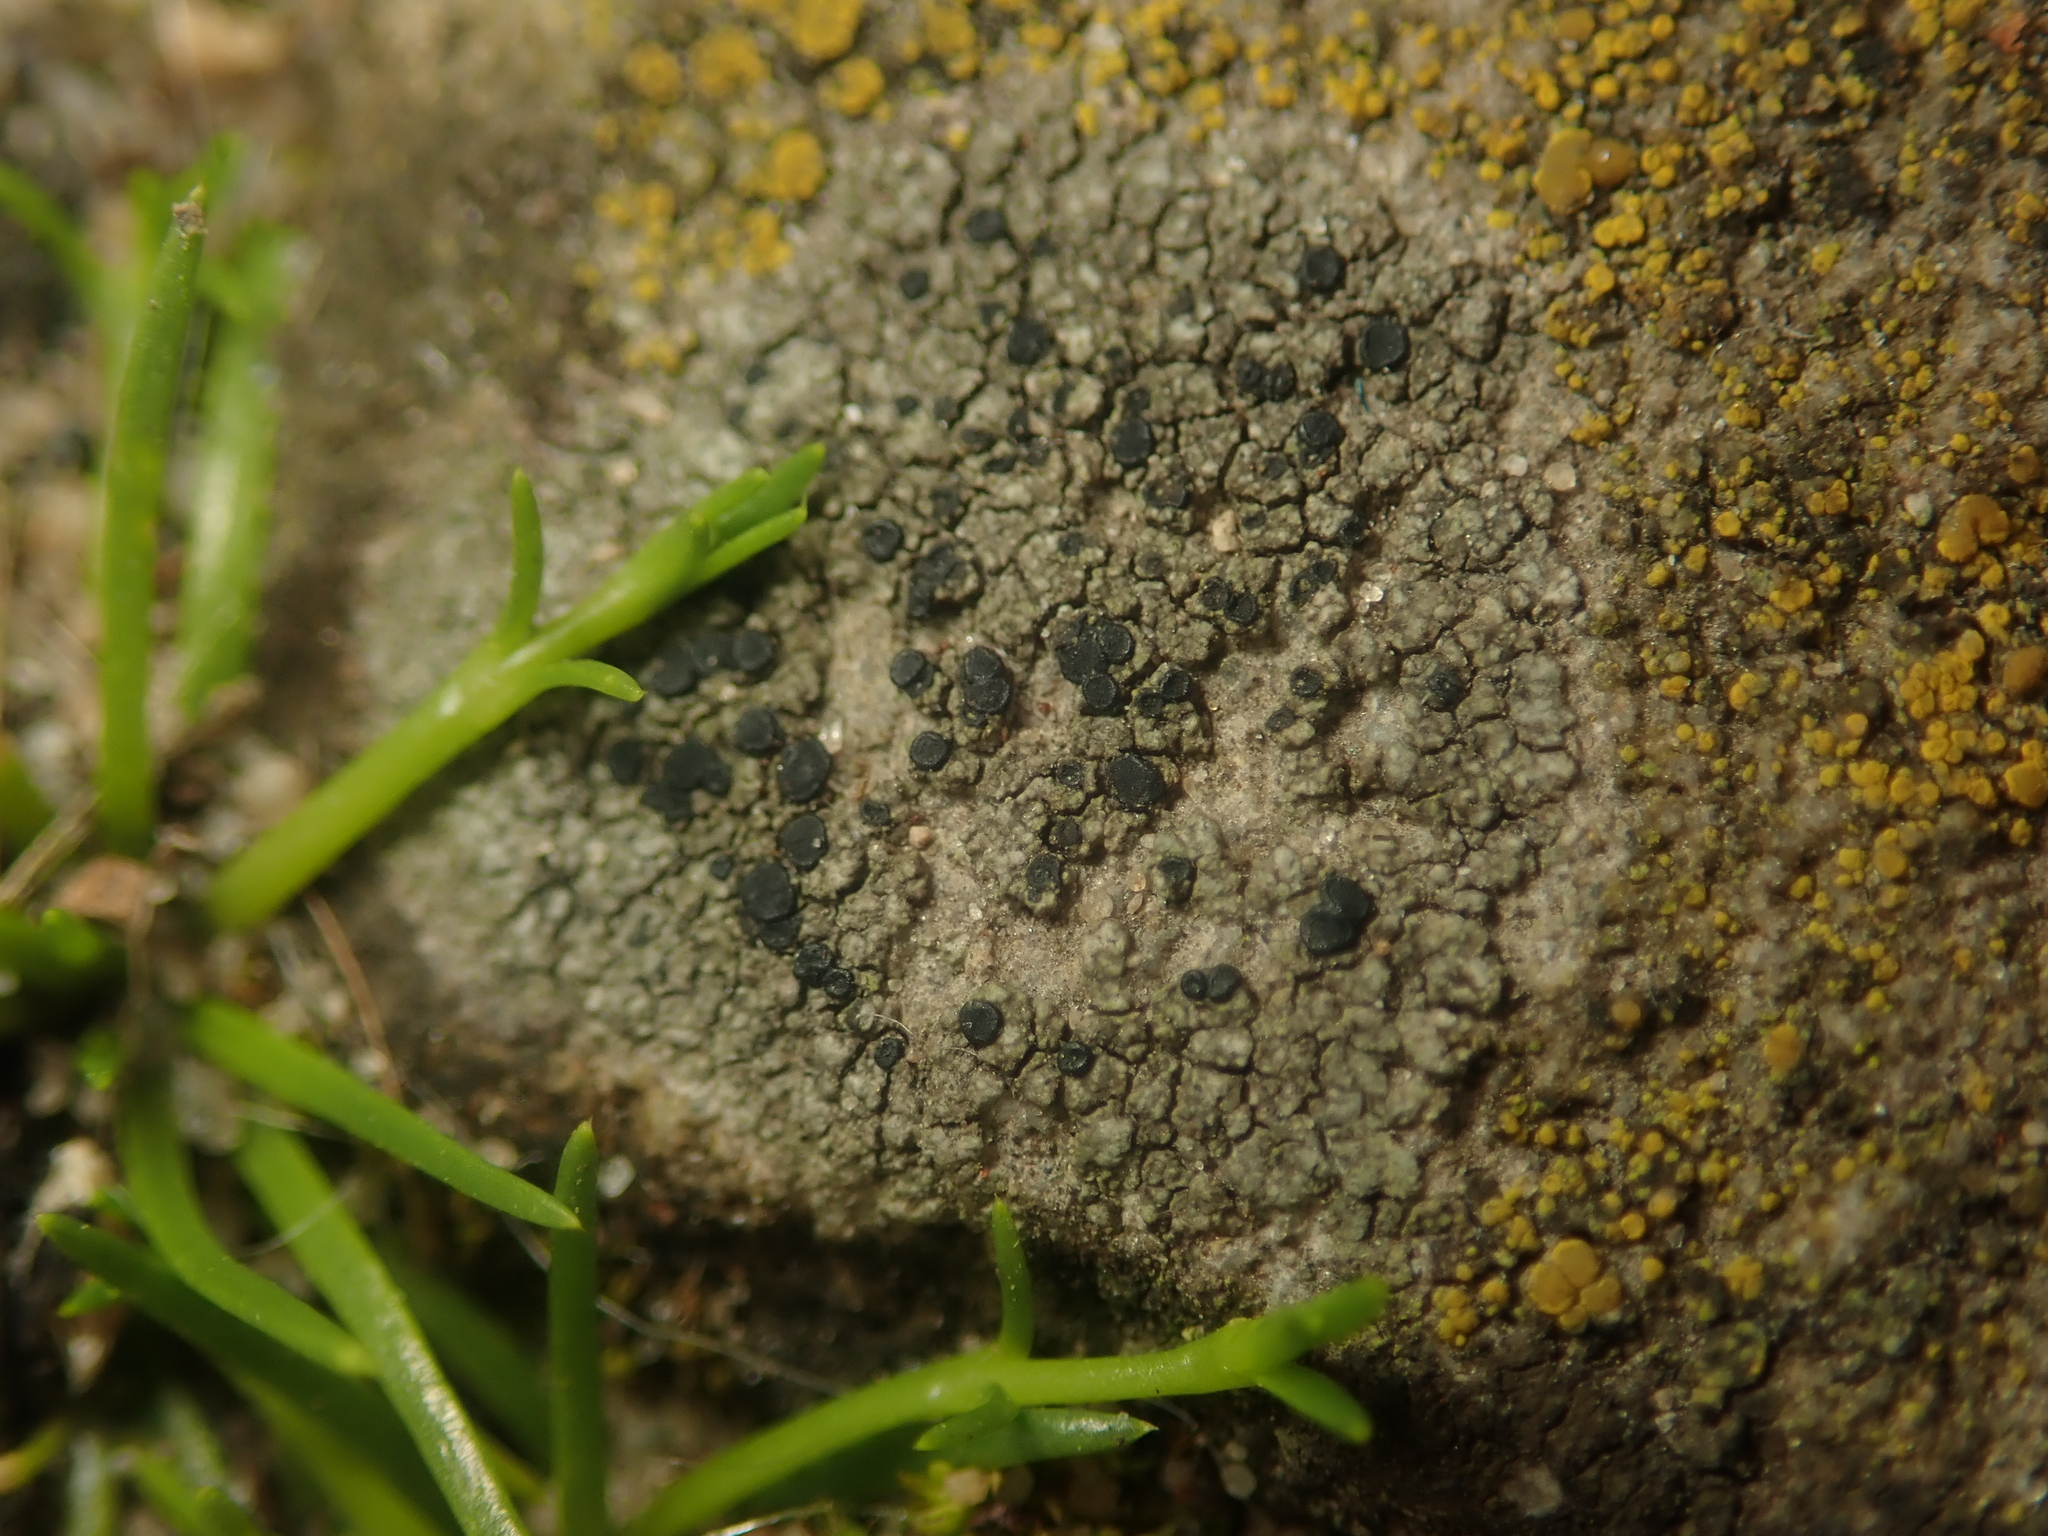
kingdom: Fungi
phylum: Ascomycota
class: Lecanoromycetes
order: Lecanorales
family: Lecanoraceae
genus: Lecidella
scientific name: Lecidella stigmatea
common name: Limestone disc lichen
